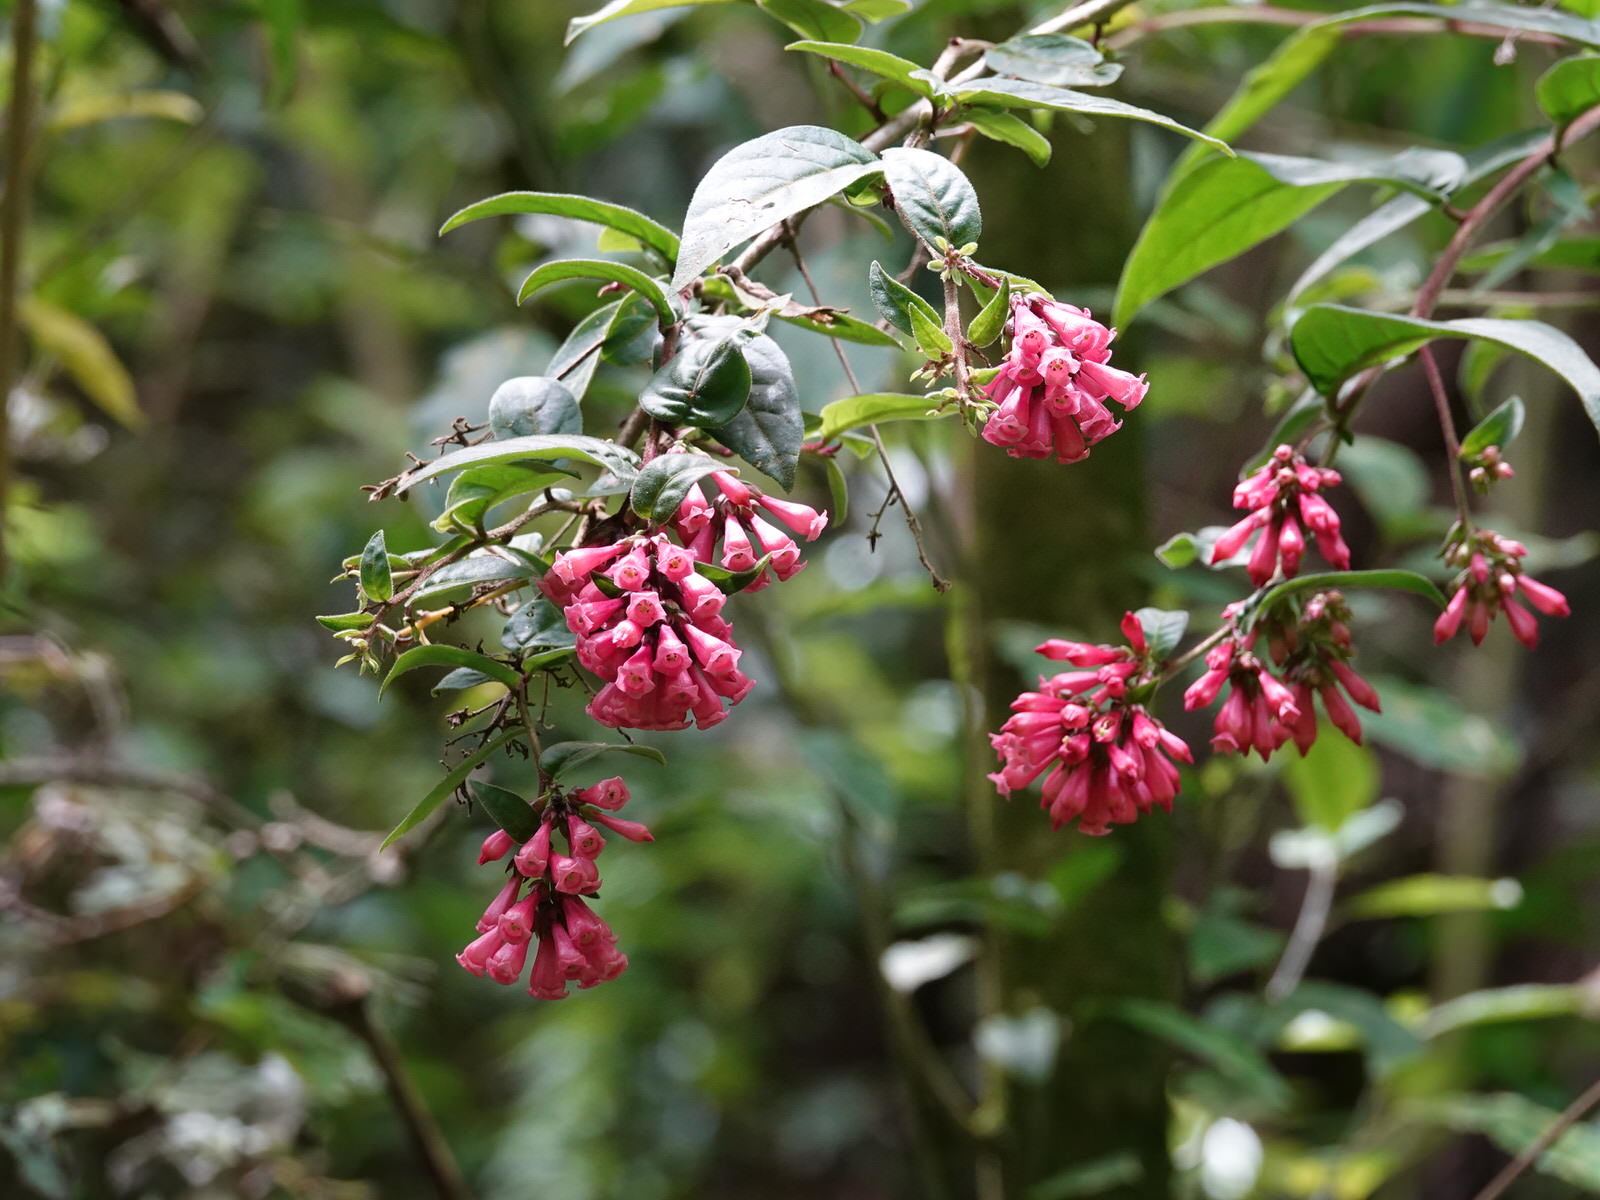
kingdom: Plantae
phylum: Tracheophyta
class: Magnoliopsida
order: Solanales
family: Solanaceae
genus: Cestrum
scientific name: Cestrum fasciculatum
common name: Early jessamine
